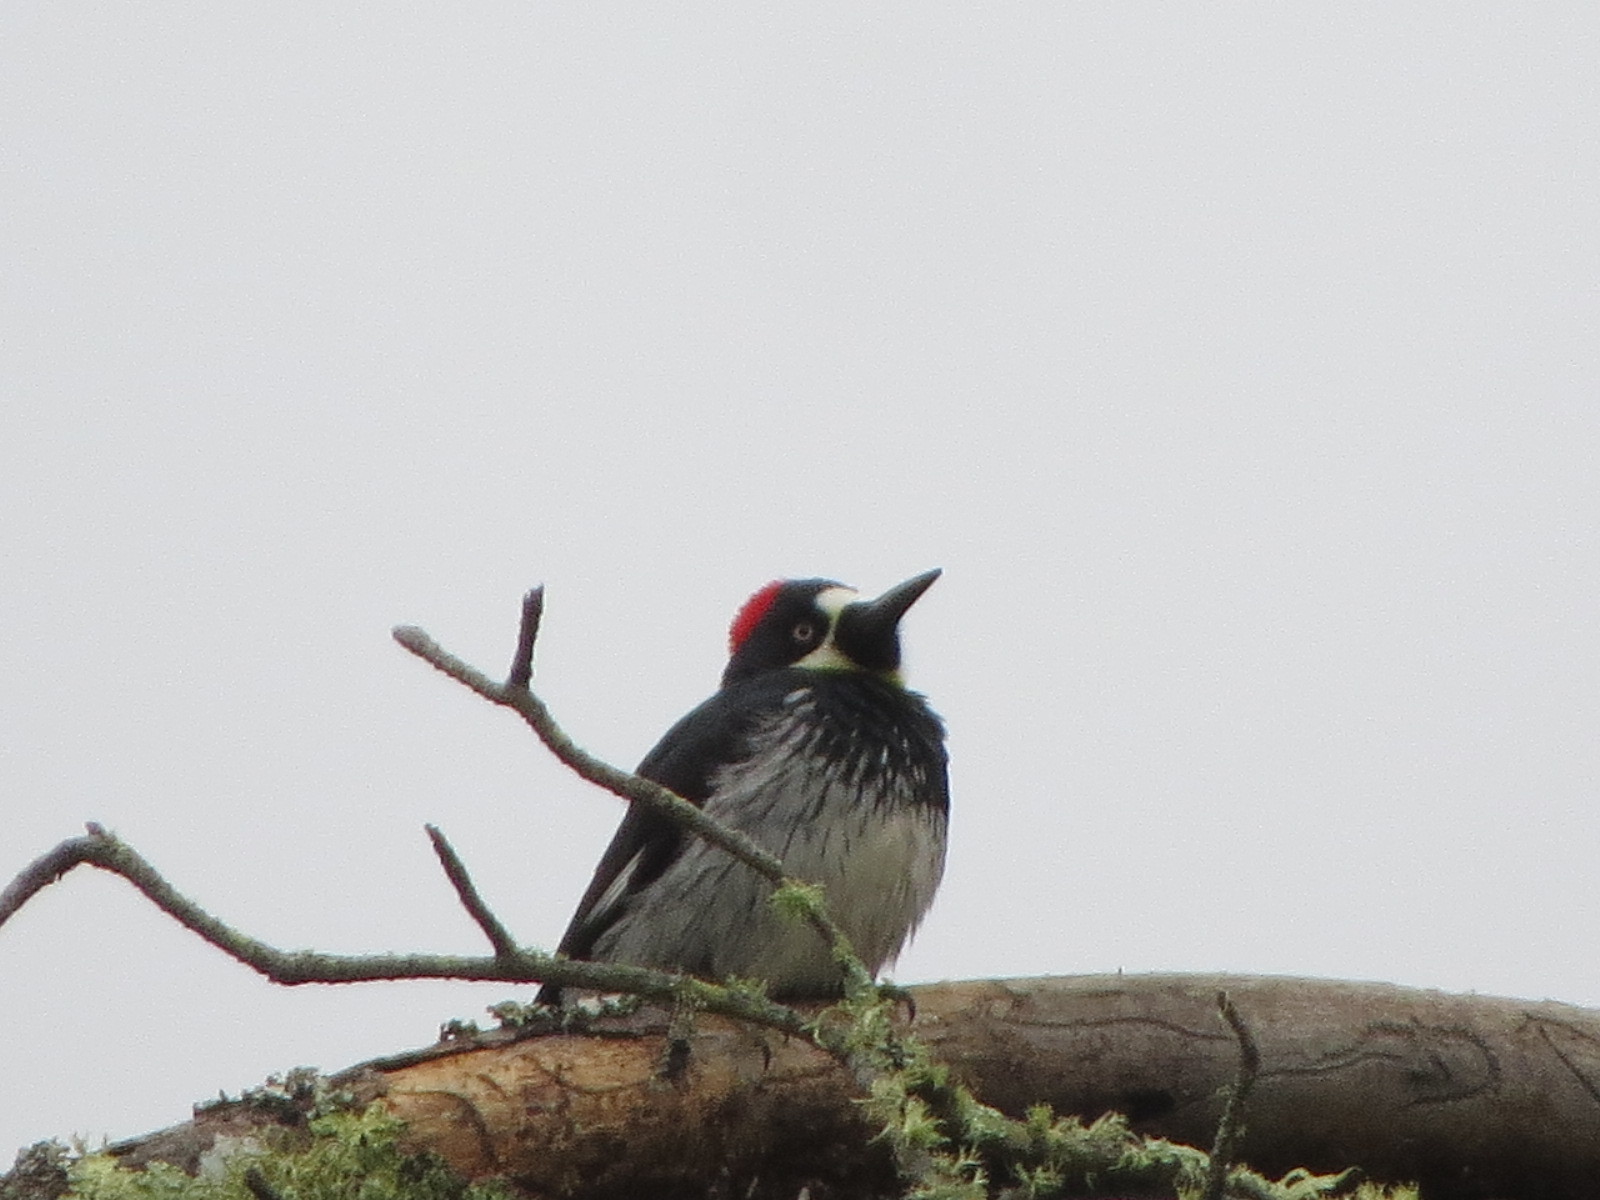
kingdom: Animalia
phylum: Chordata
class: Aves
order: Piciformes
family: Picidae
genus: Melanerpes
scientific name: Melanerpes formicivorus
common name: Acorn woodpecker
